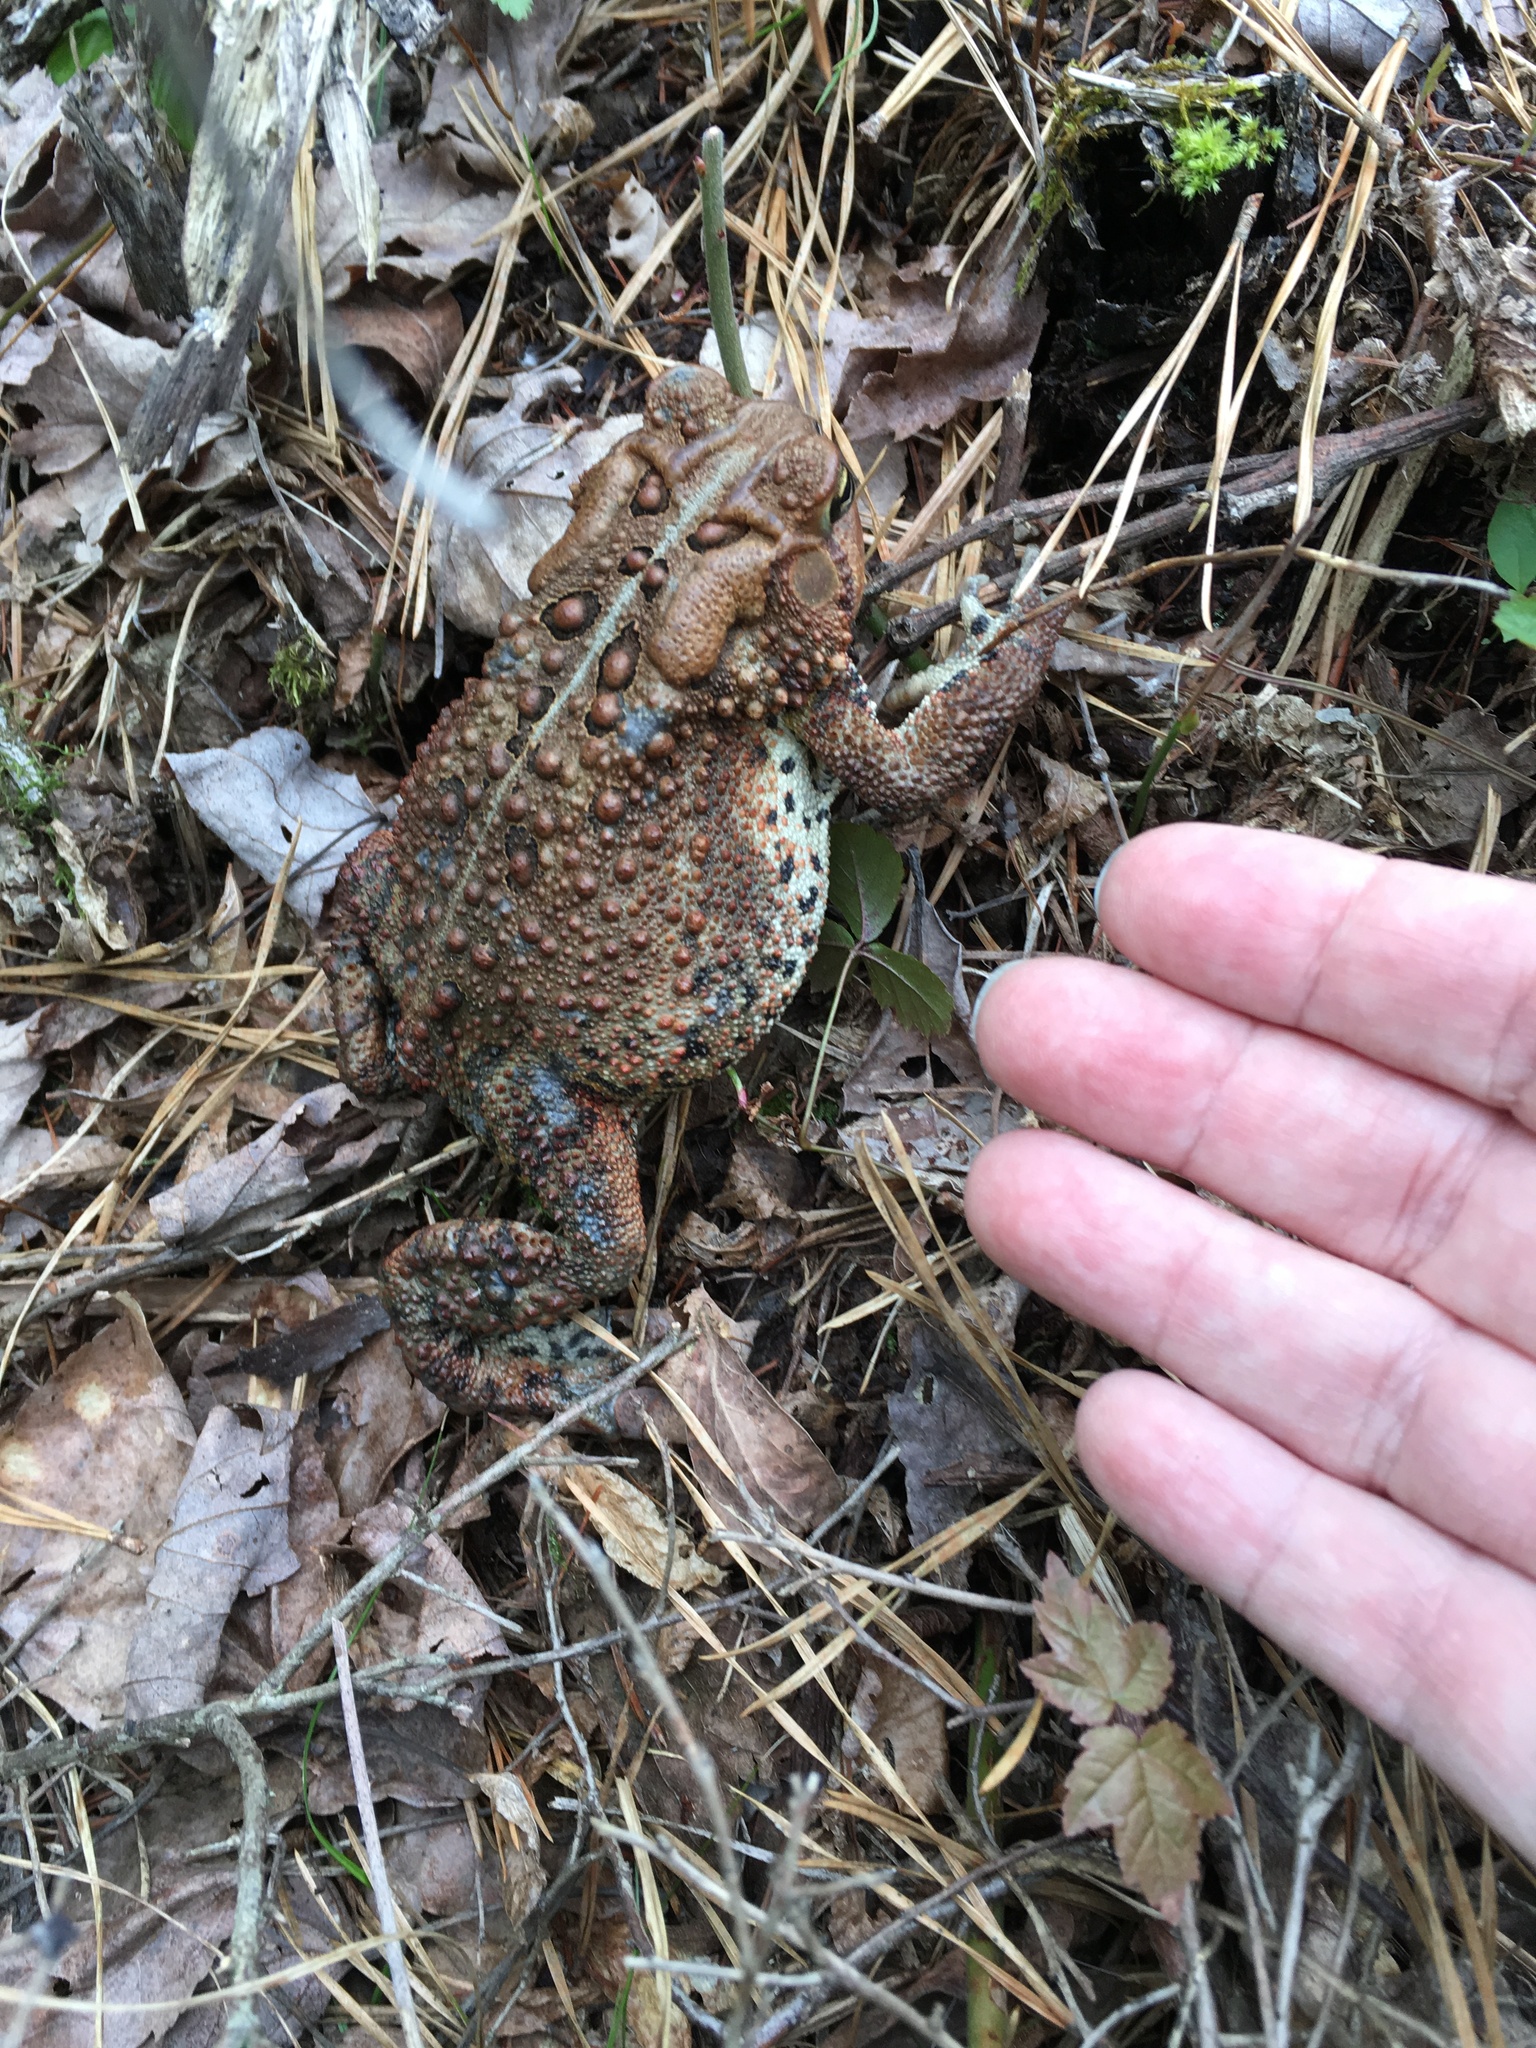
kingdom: Animalia
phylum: Chordata
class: Amphibia
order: Anura
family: Bufonidae
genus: Anaxyrus
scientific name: Anaxyrus americanus
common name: American toad
